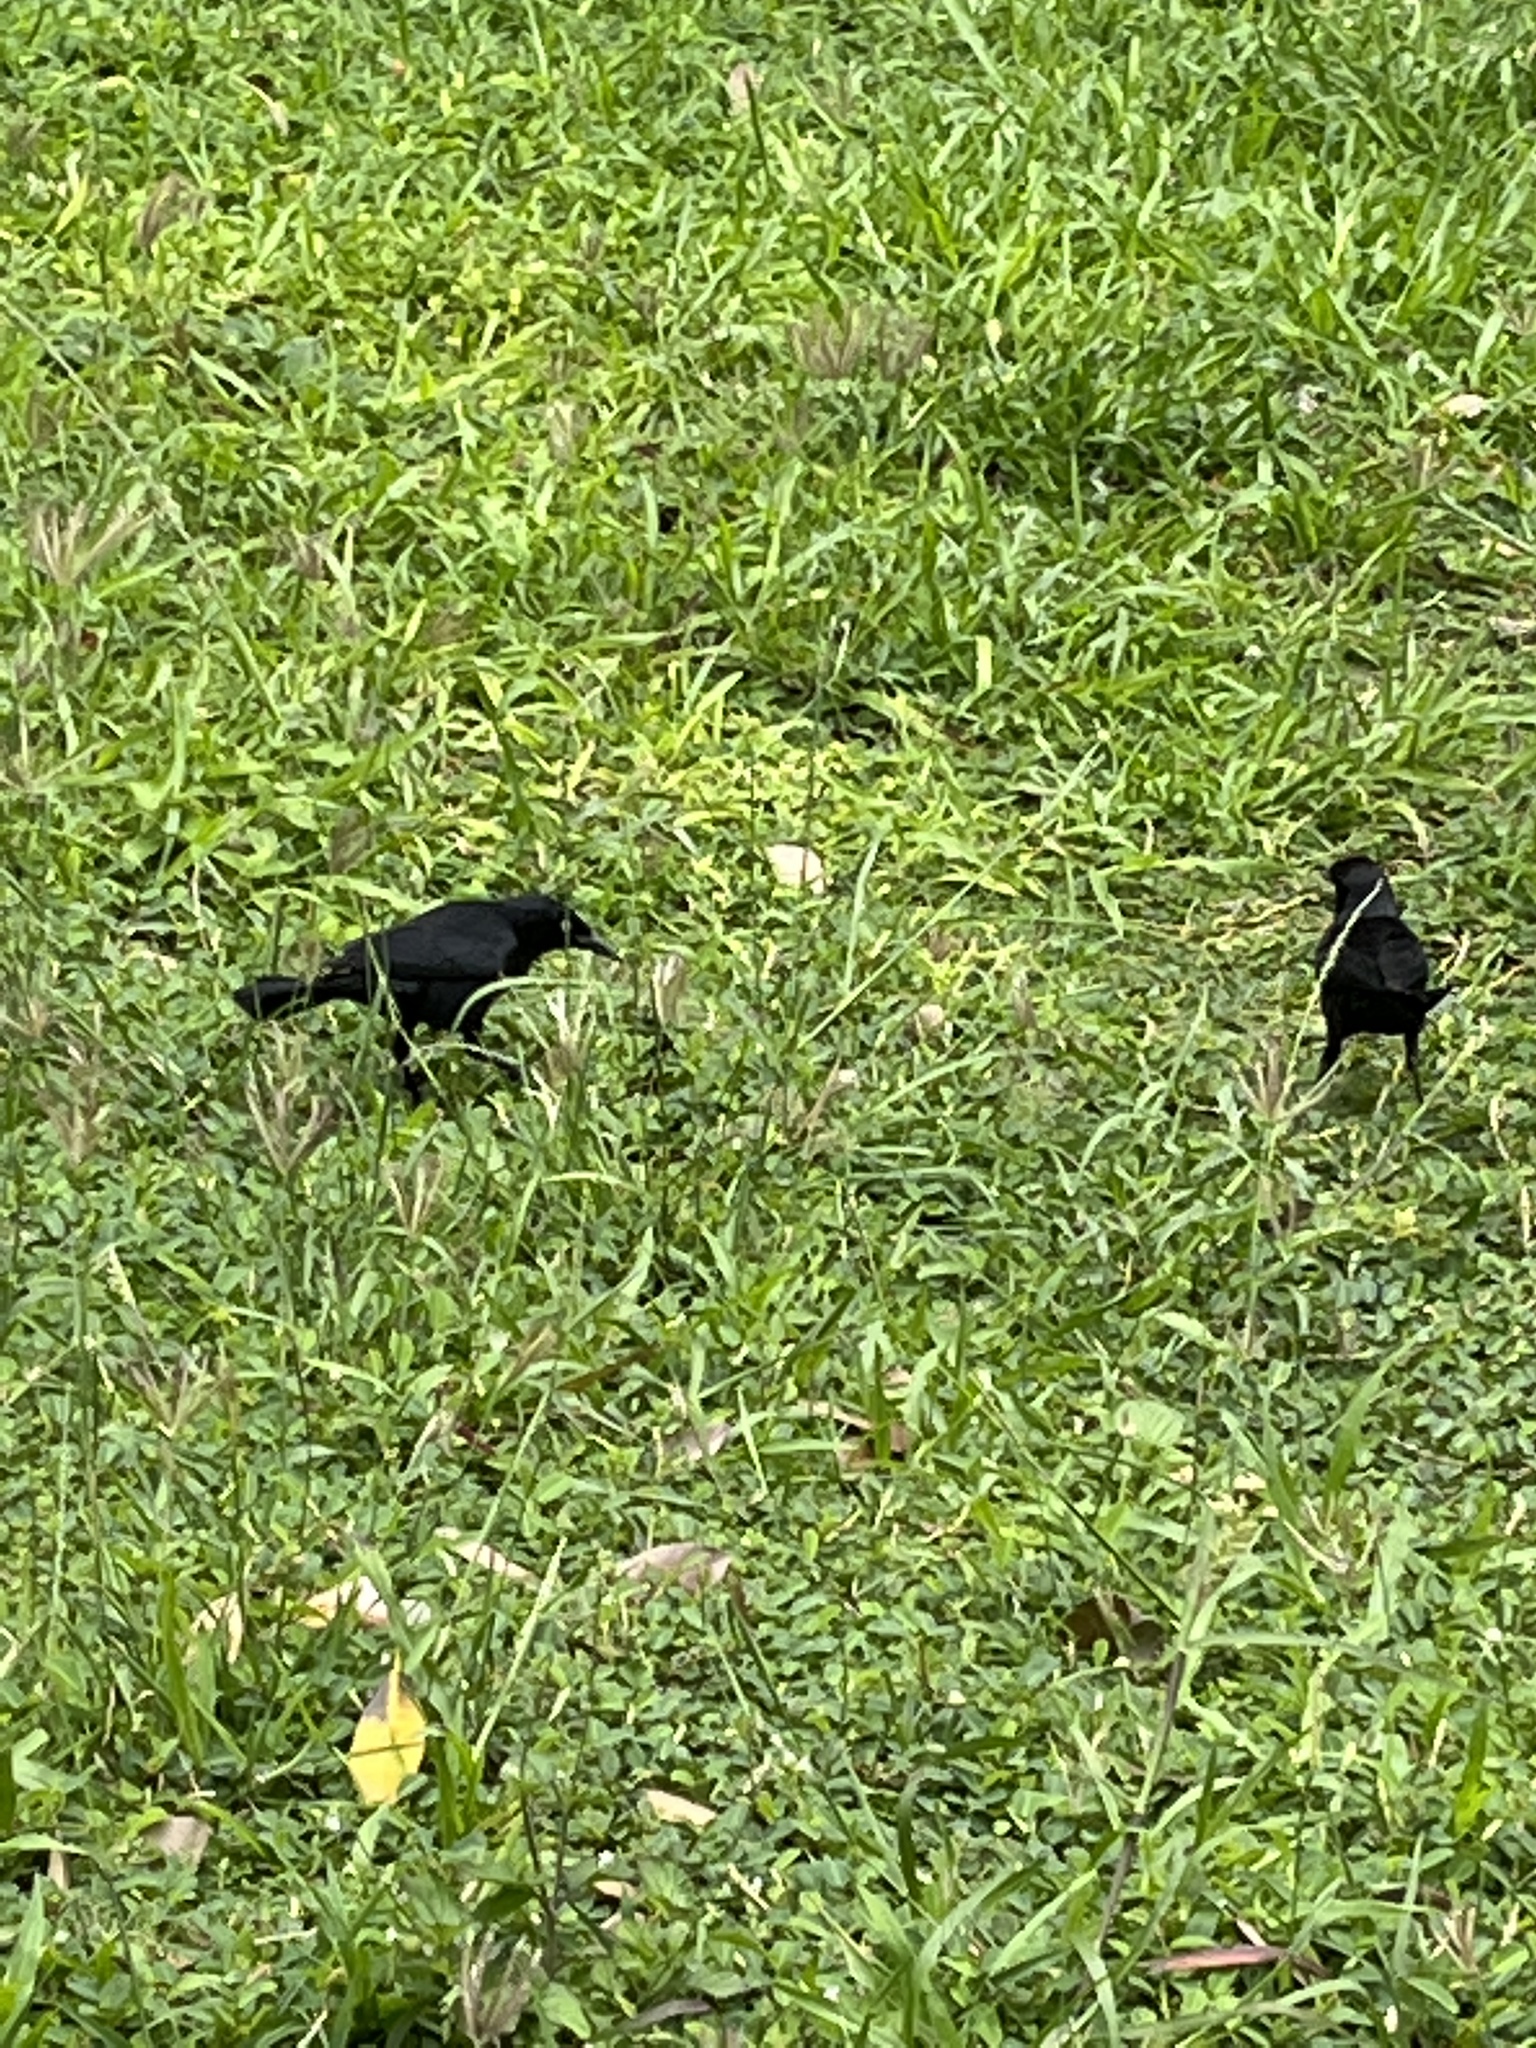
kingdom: Animalia
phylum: Chordata
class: Aves
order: Passeriformes
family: Icteridae
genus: Quiscalus
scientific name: Quiscalus niger
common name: Greater antillean grackle
